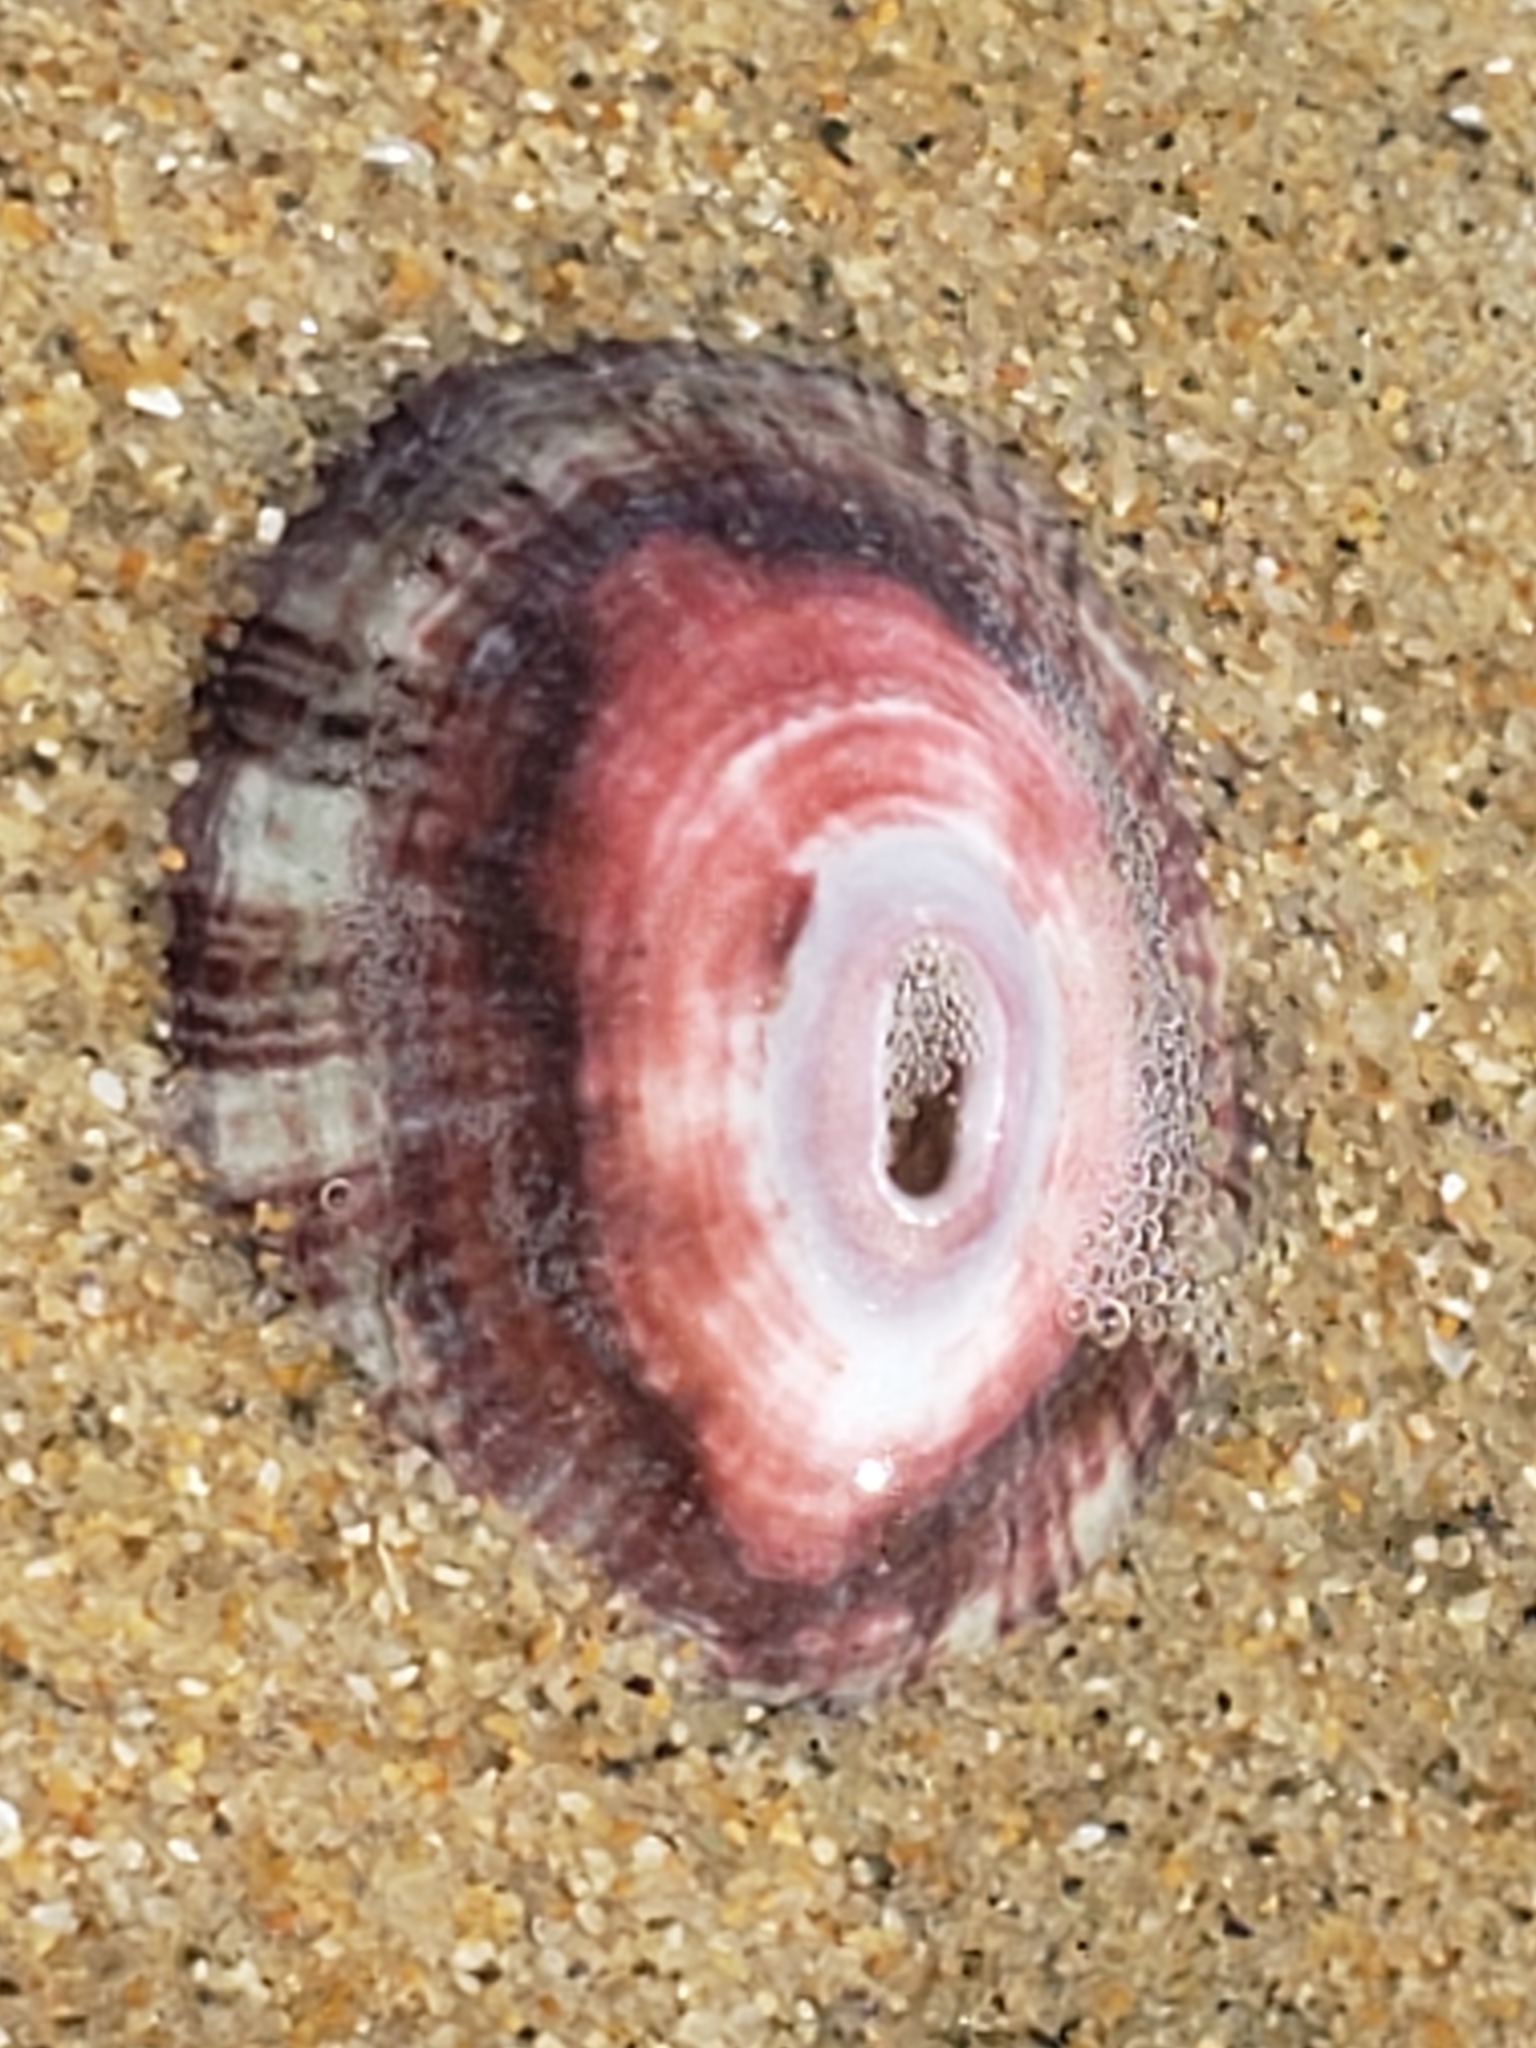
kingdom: Animalia
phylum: Mollusca
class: Gastropoda
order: Lepetellida
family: Fissurellidae
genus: Fissurella
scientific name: Fissurella volcano
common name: Volcano keyhole limpet
